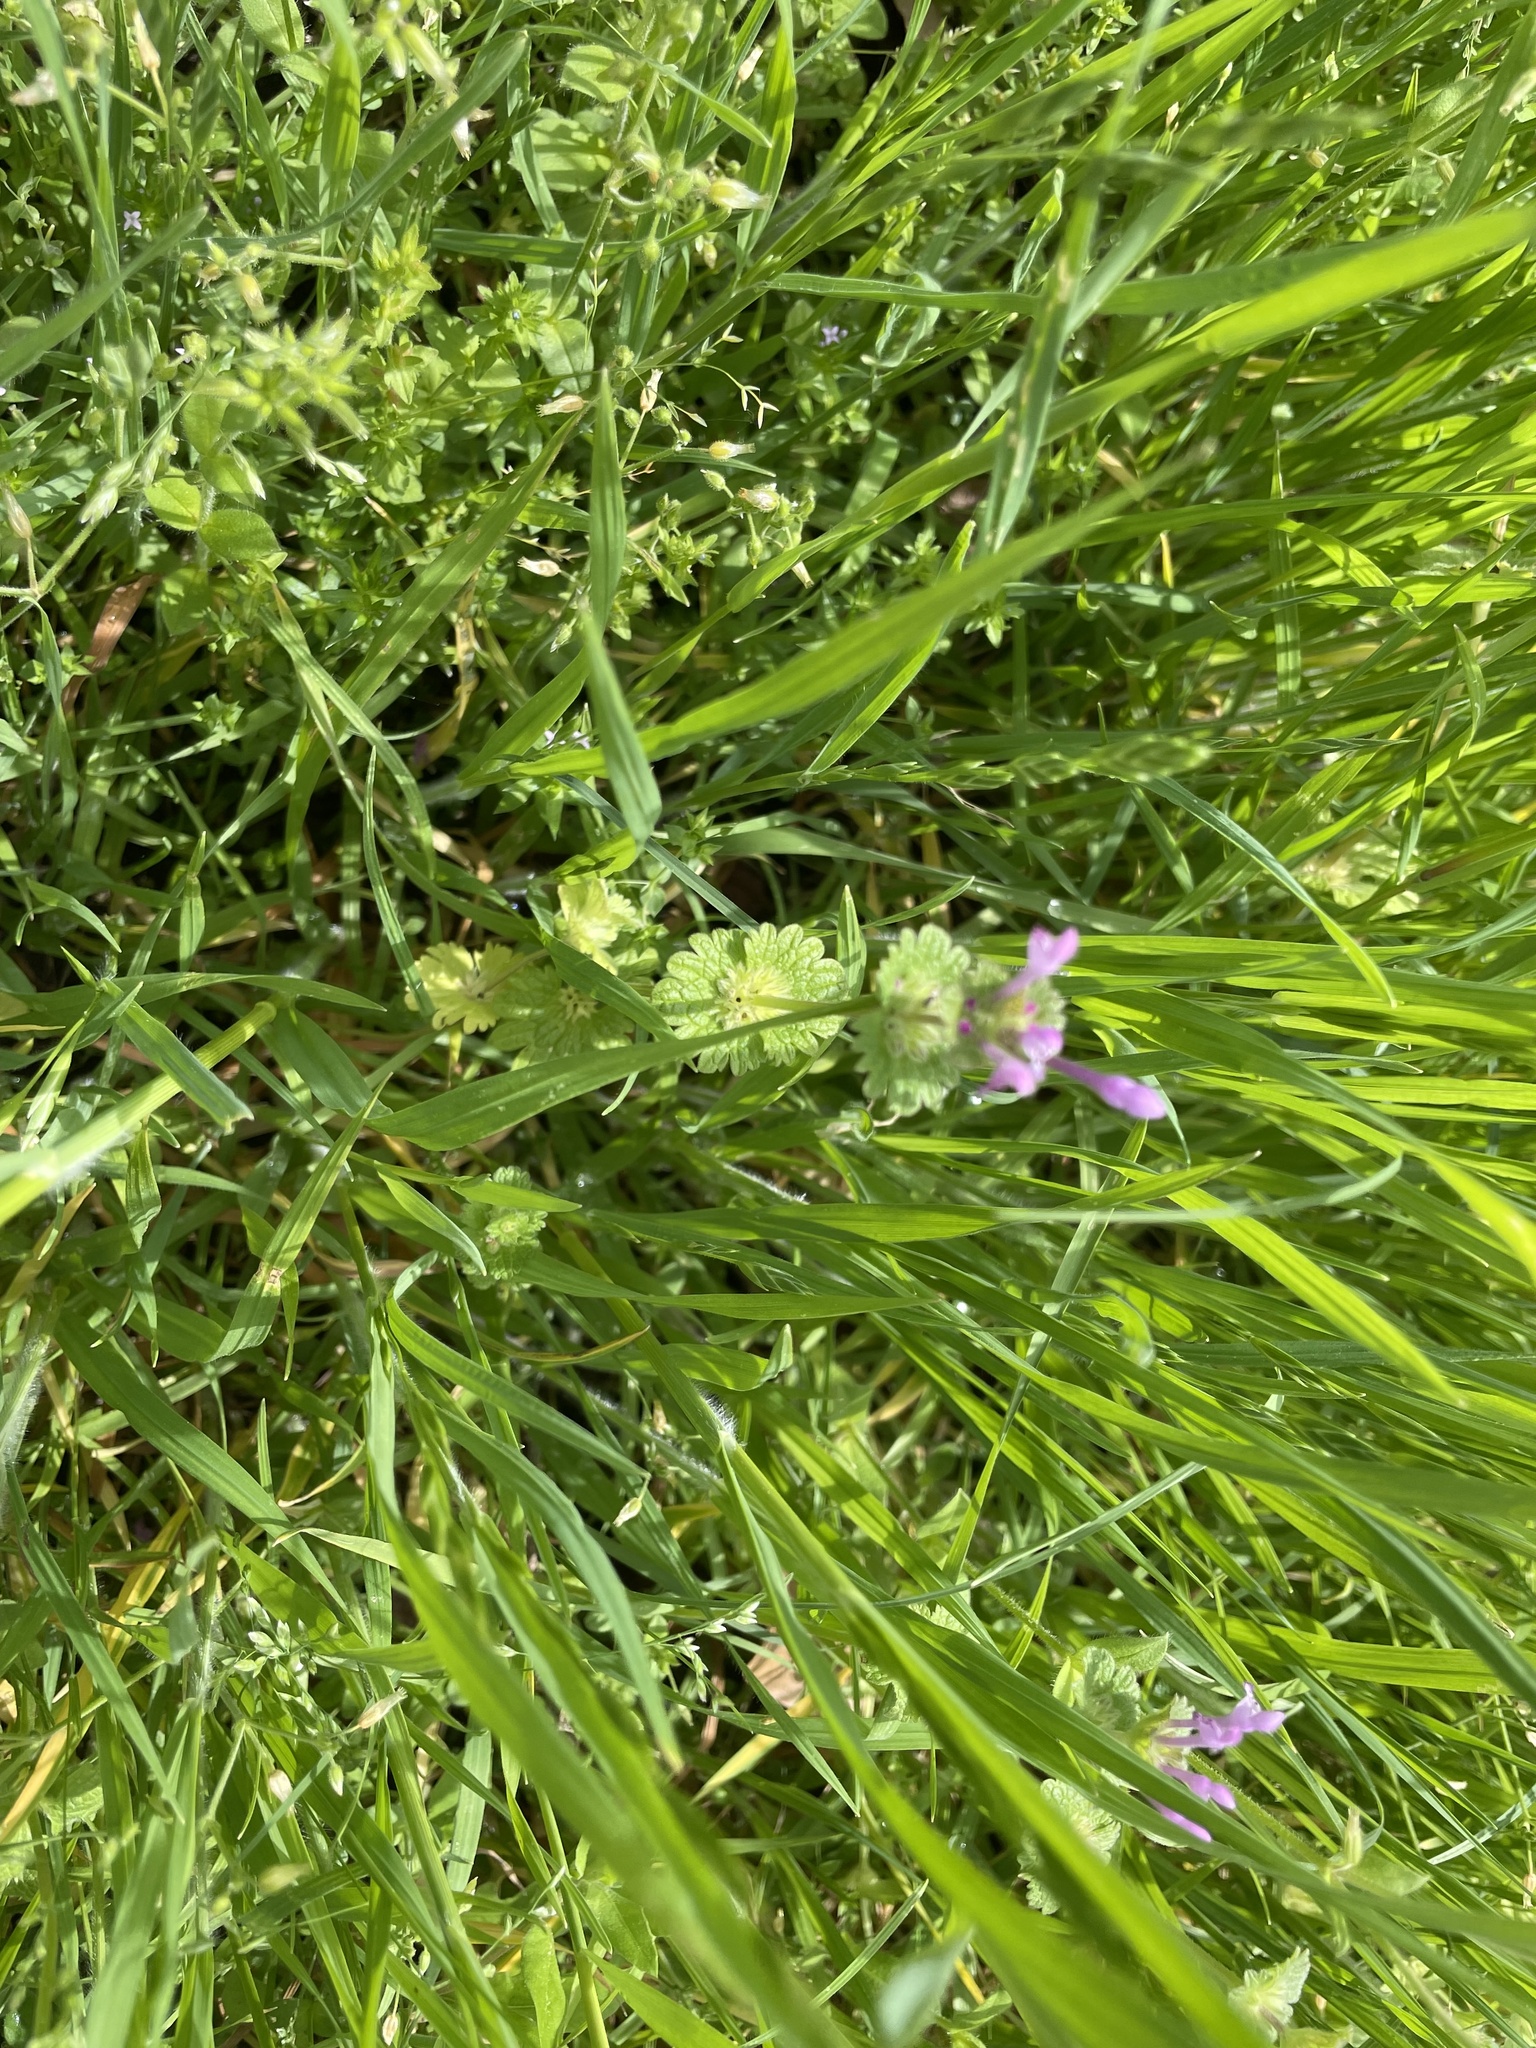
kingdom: Plantae
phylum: Tracheophyta
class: Magnoliopsida
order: Lamiales
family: Lamiaceae
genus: Lamium
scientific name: Lamium amplexicaule
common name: Henbit dead-nettle
